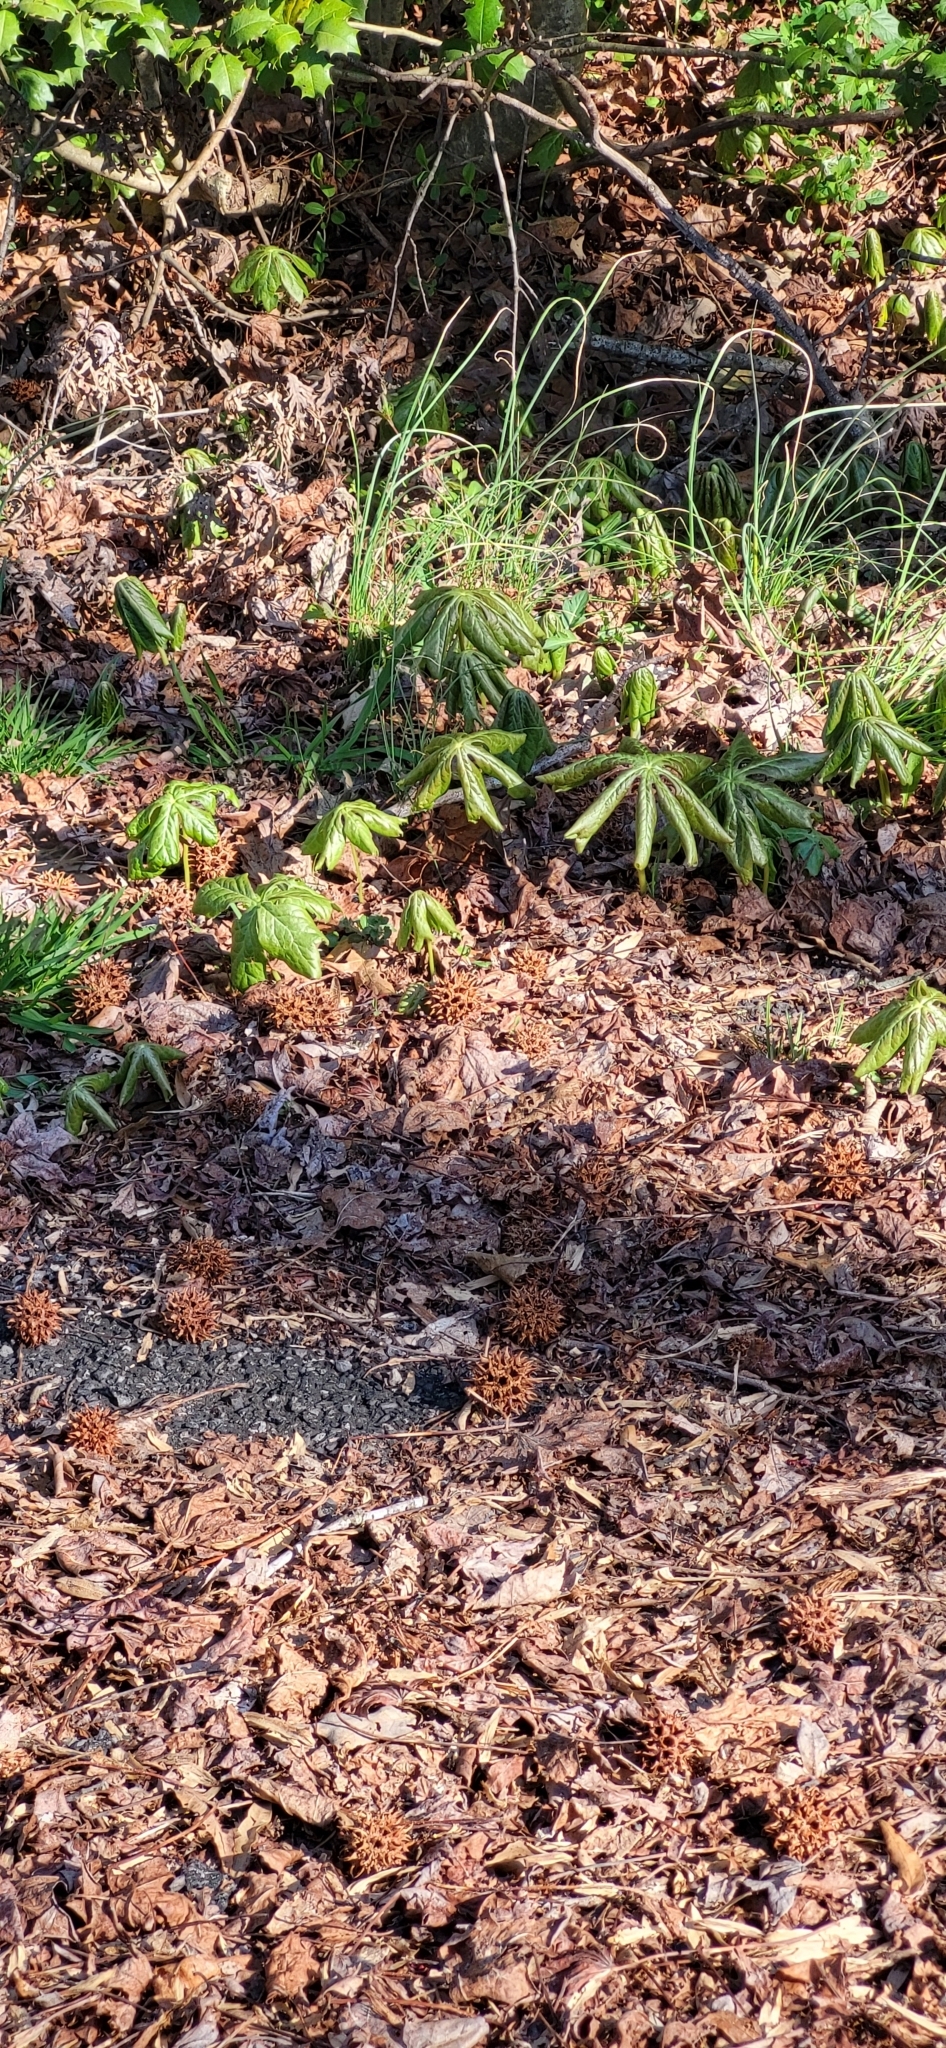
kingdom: Plantae
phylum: Tracheophyta
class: Magnoliopsida
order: Ranunculales
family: Berberidaceae
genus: Podophyllum
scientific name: Podophyllum peltatum
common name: Wild mandrake
